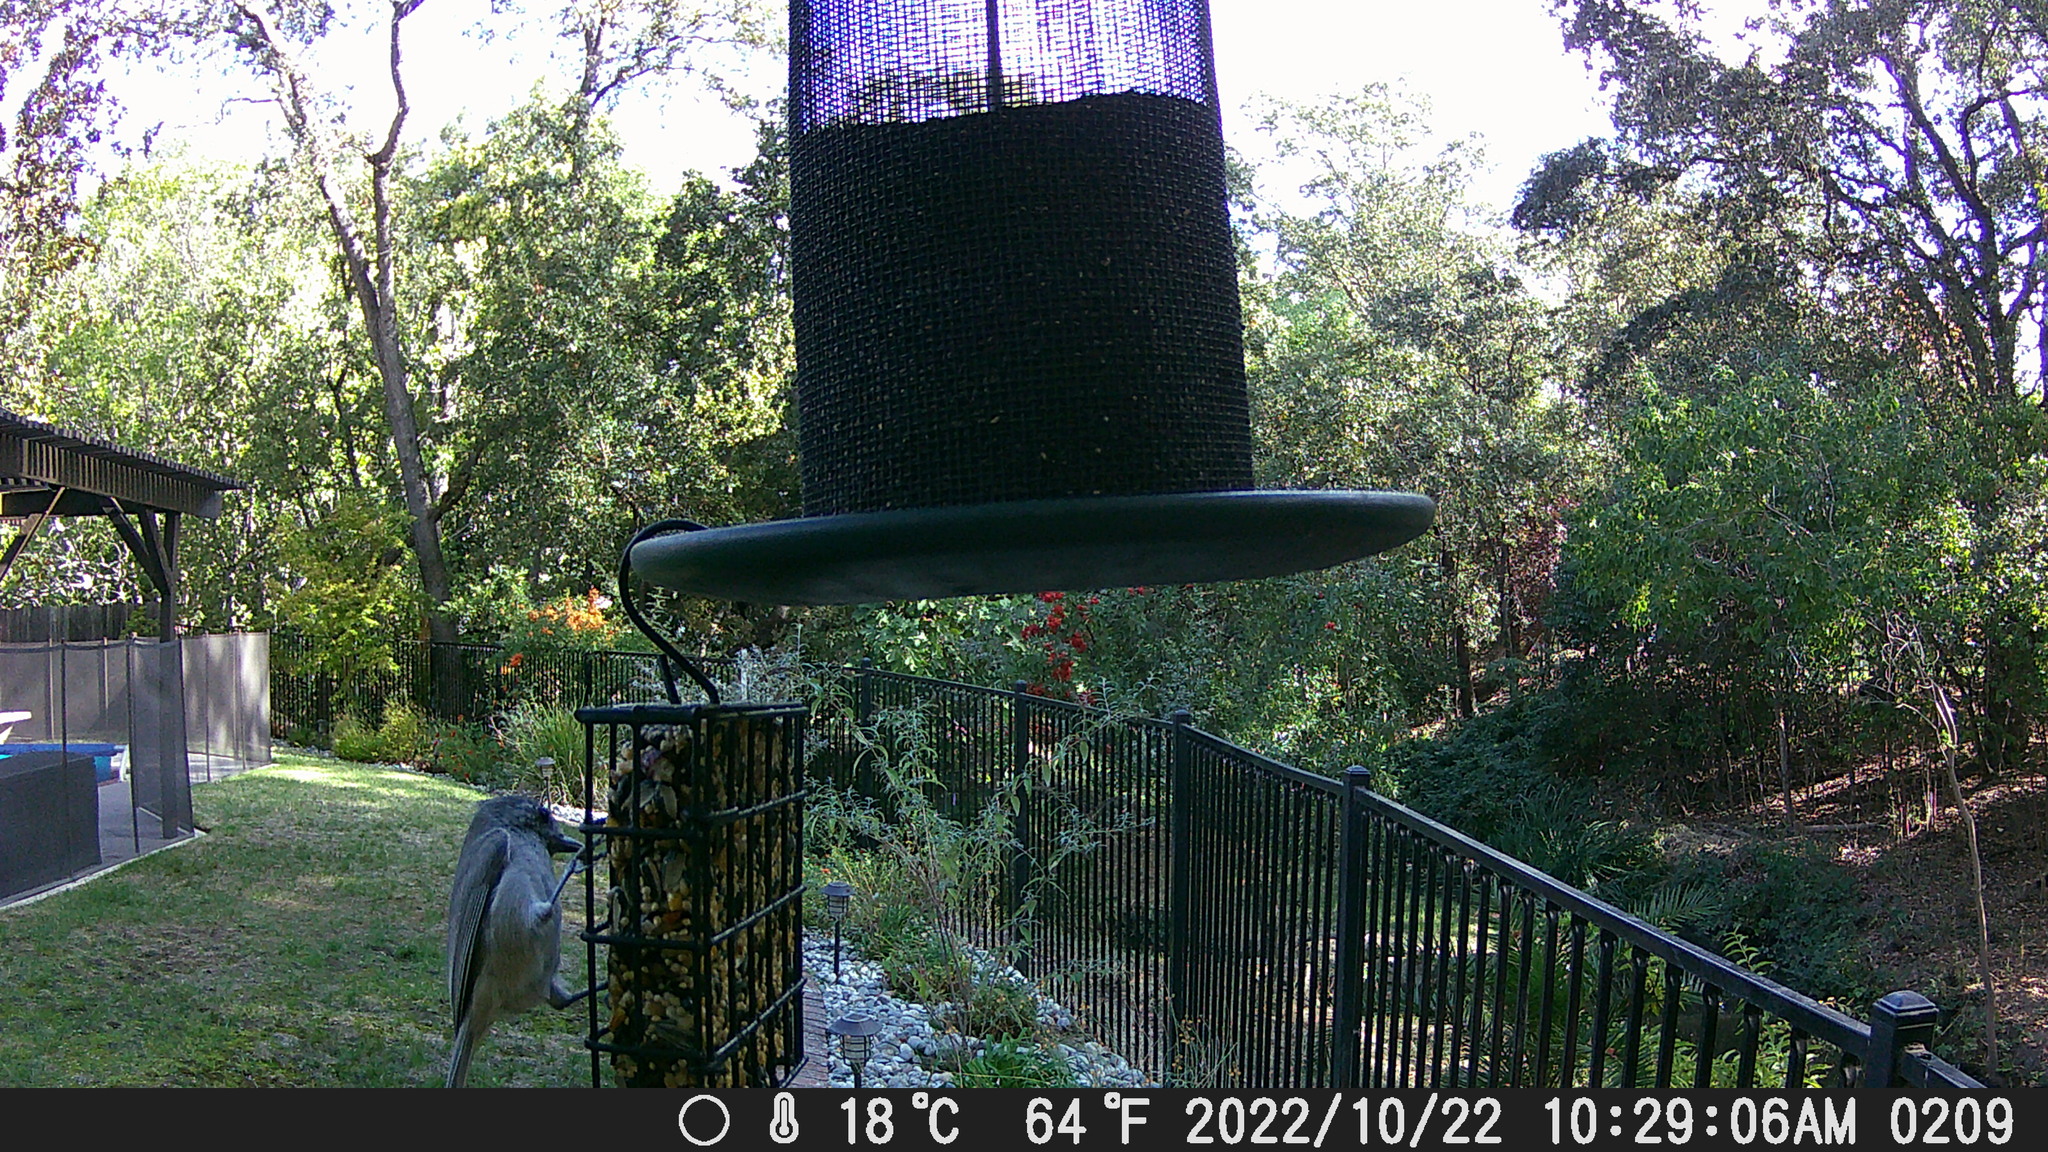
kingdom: Animalia
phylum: Chordata
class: Aves
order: Passeriformes
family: Paridae
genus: Baeolophus
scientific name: Baeolophus inornatus
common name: Oak titmouse
